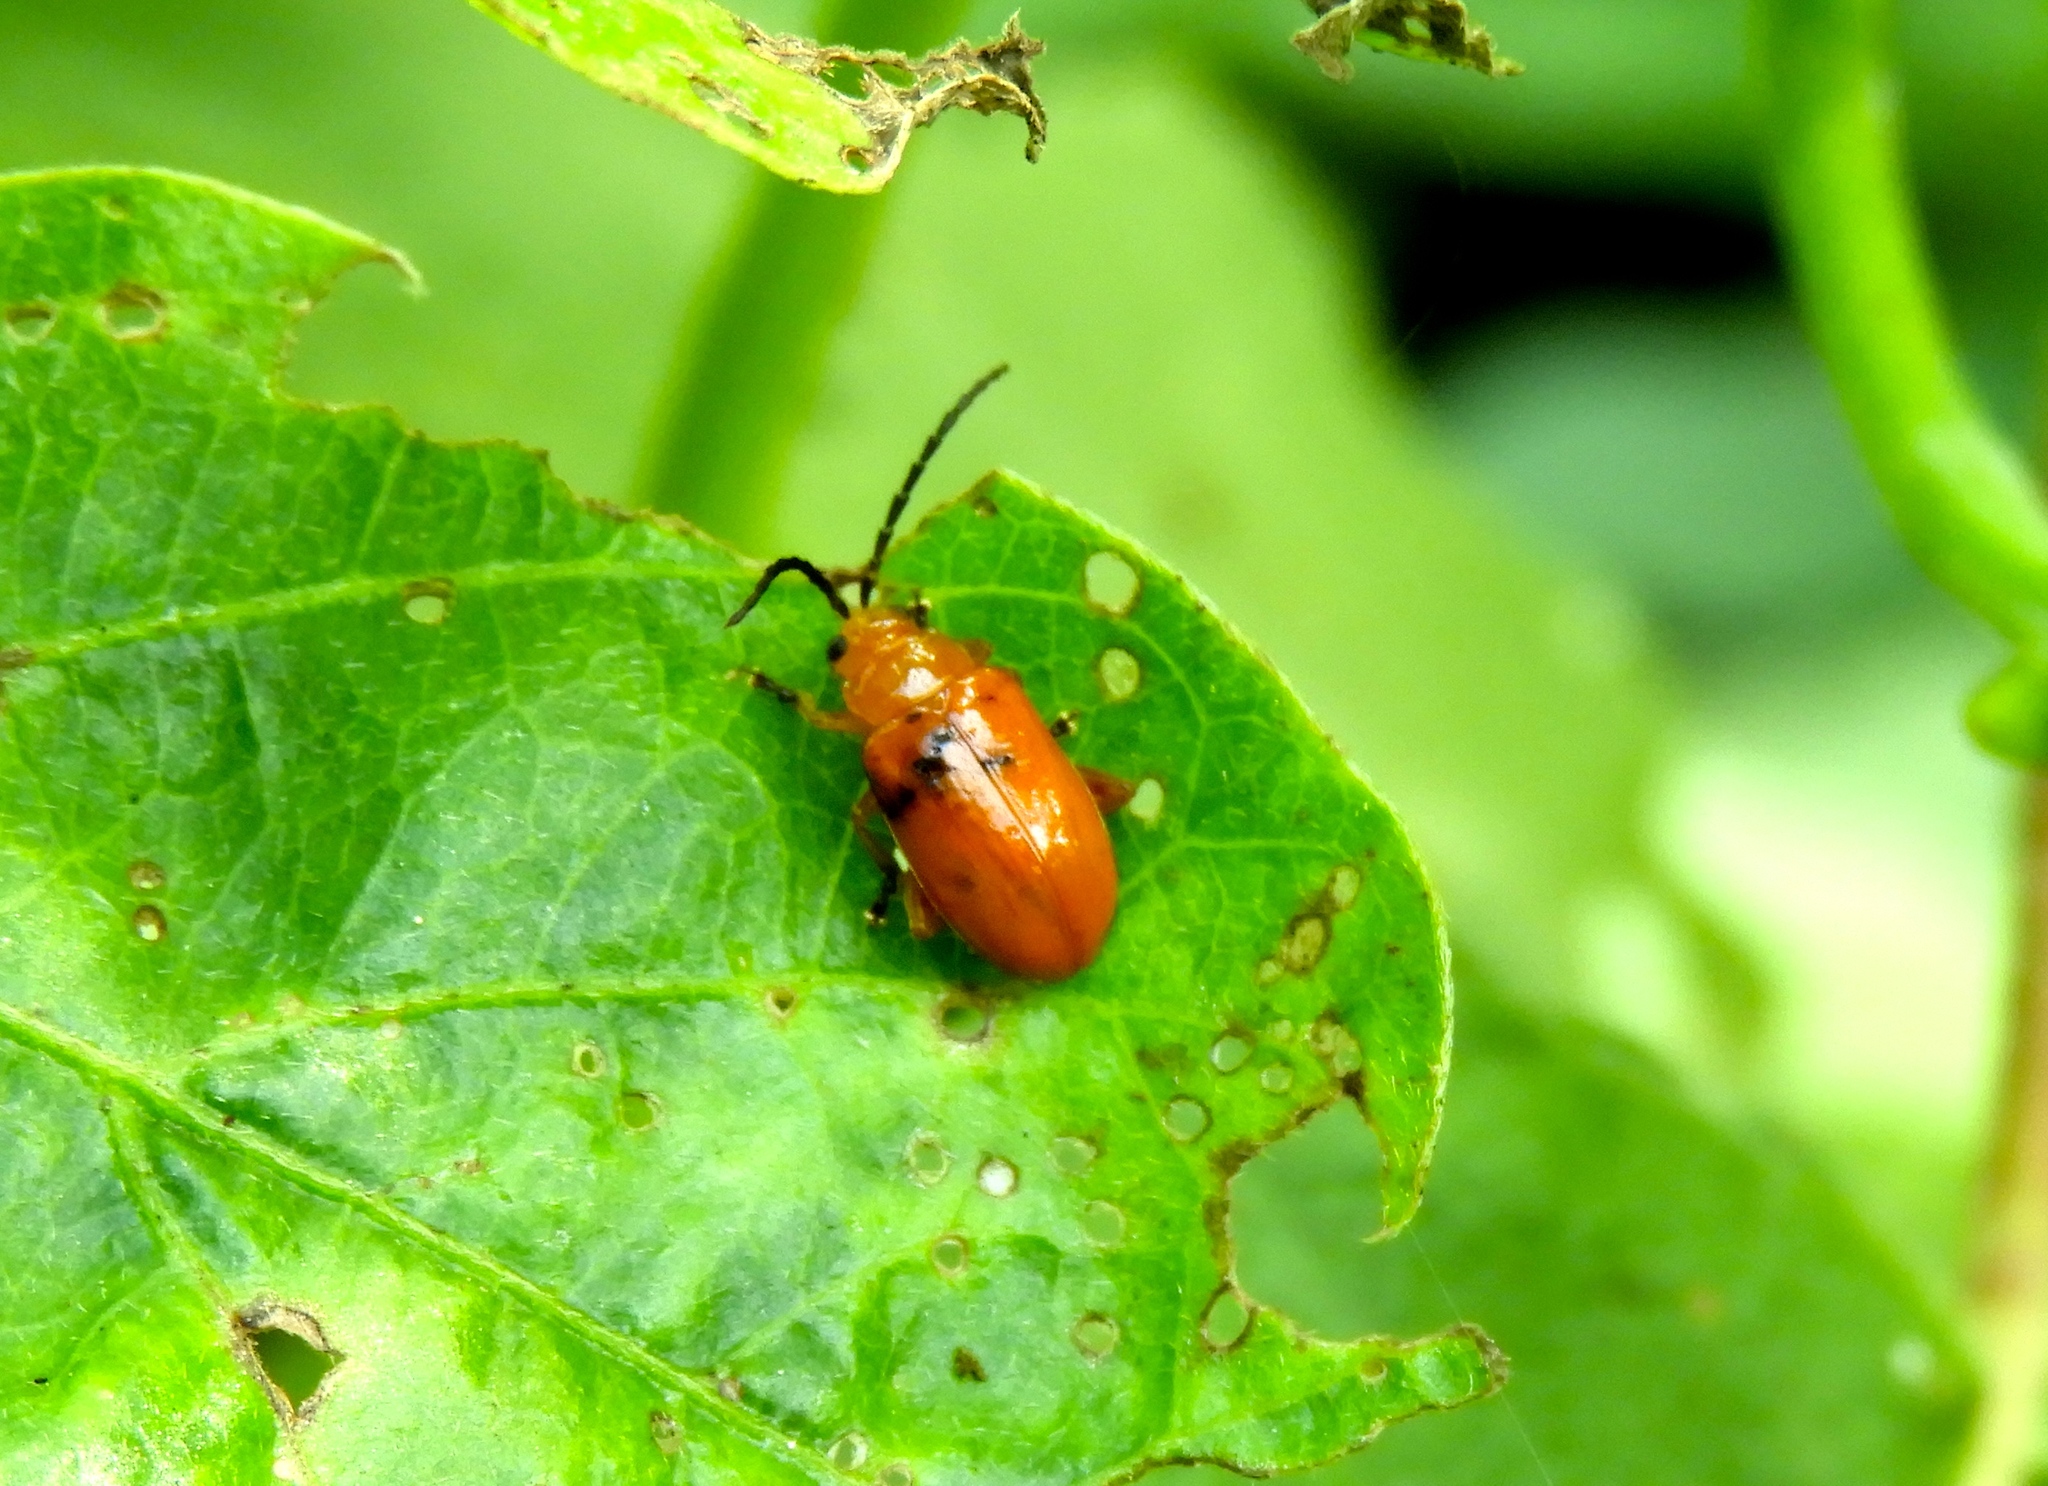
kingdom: Animalia
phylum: Arthropoda
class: Insecta
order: Coleoptera
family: Chrysomelidae
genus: Alticini
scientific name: Alticini
